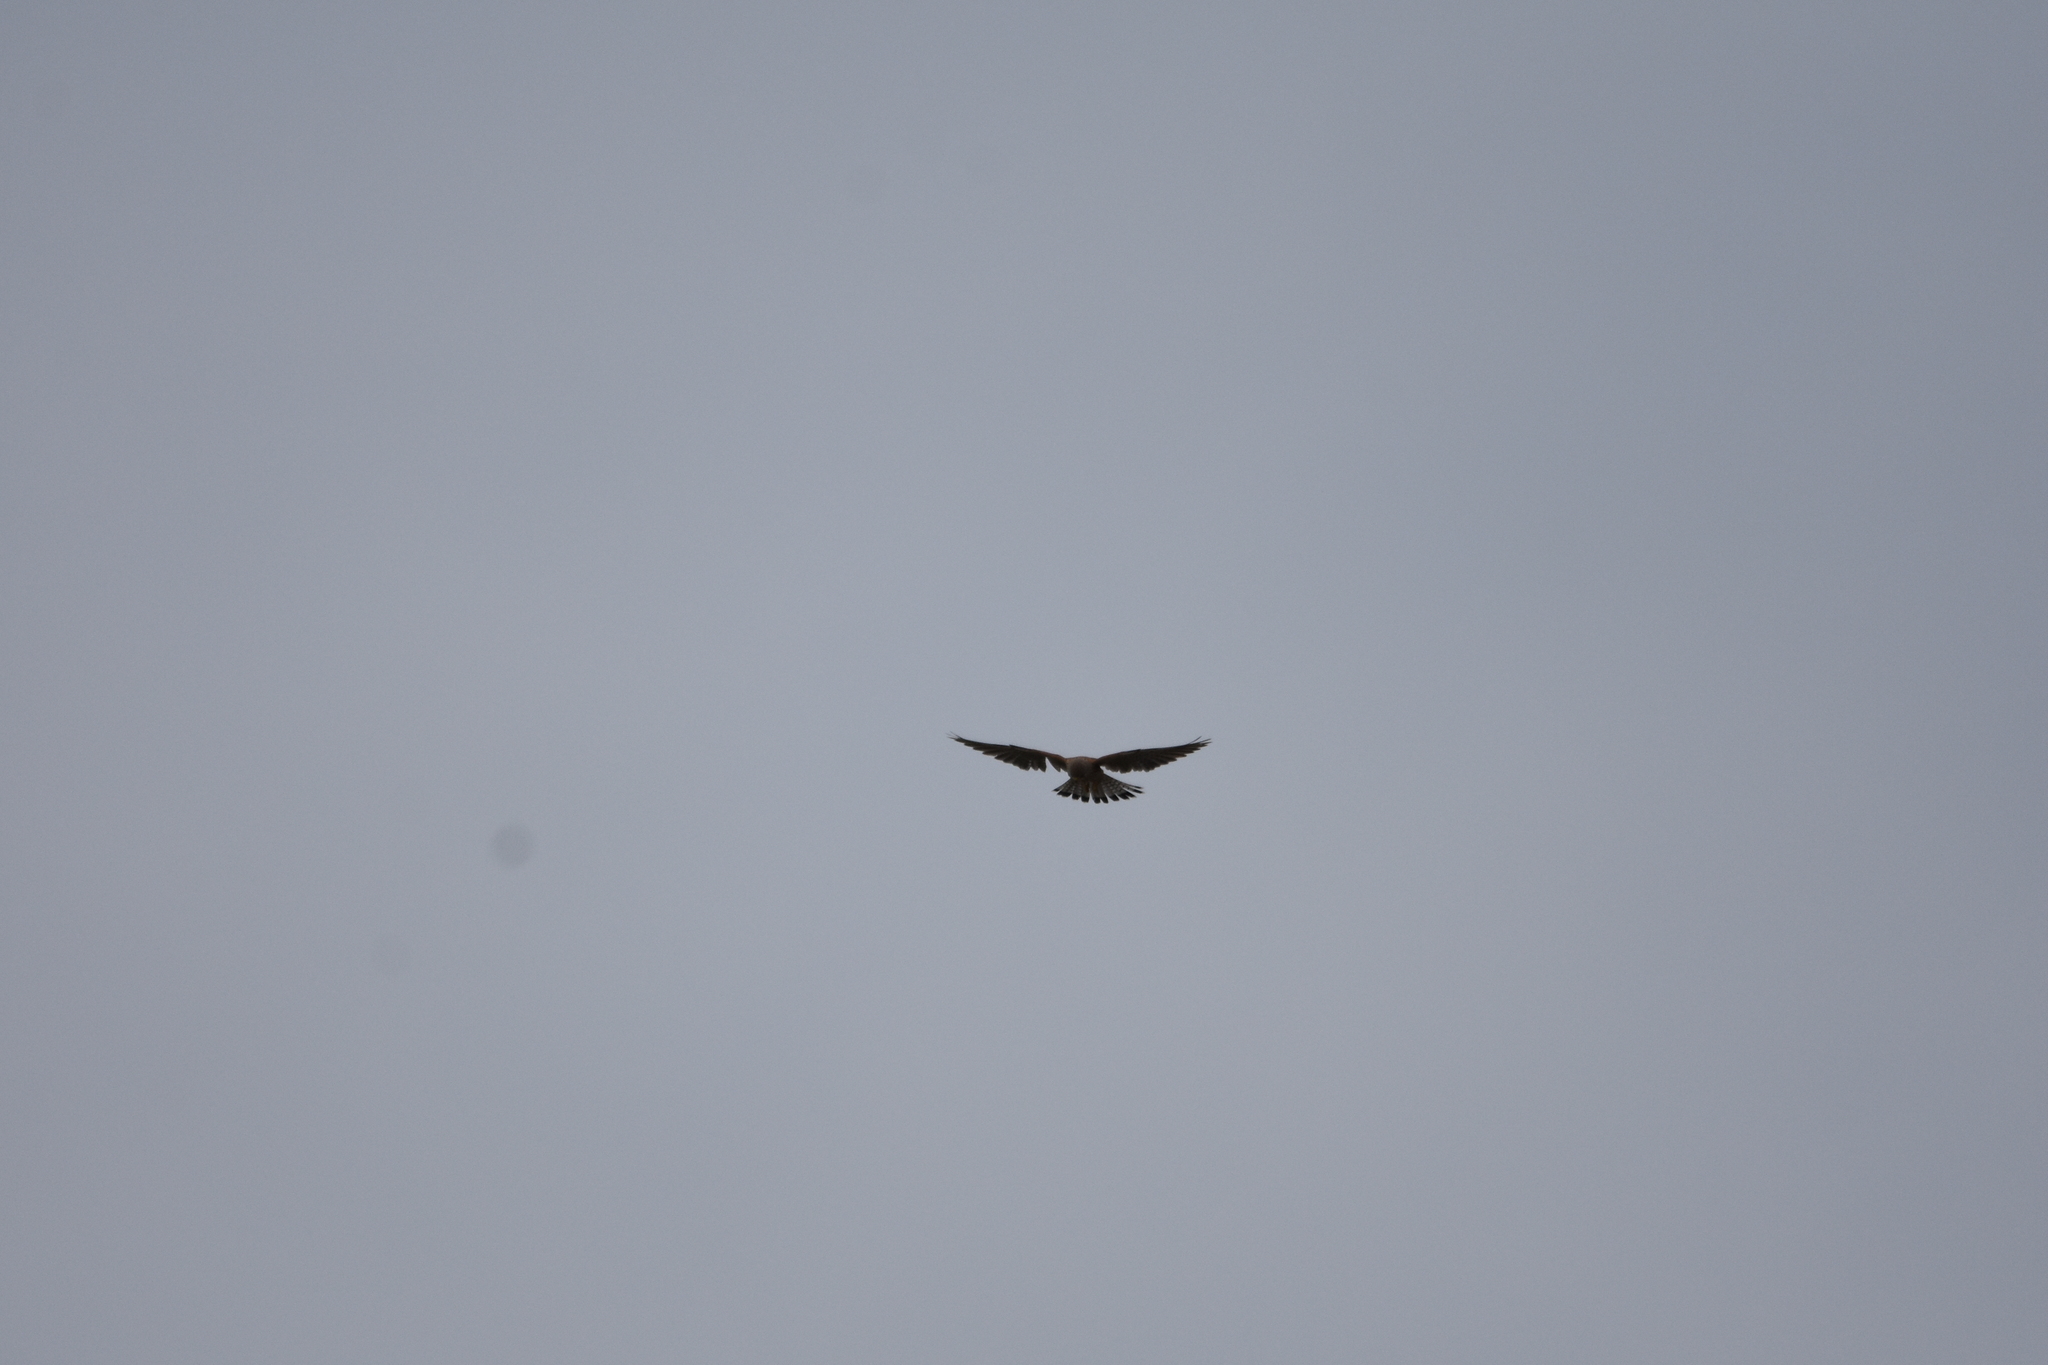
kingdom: Animalia
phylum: Chordata
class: Aves
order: Falconiformes
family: Falconidae
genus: Falco
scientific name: Falco tinnunculus
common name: Common kestrel
